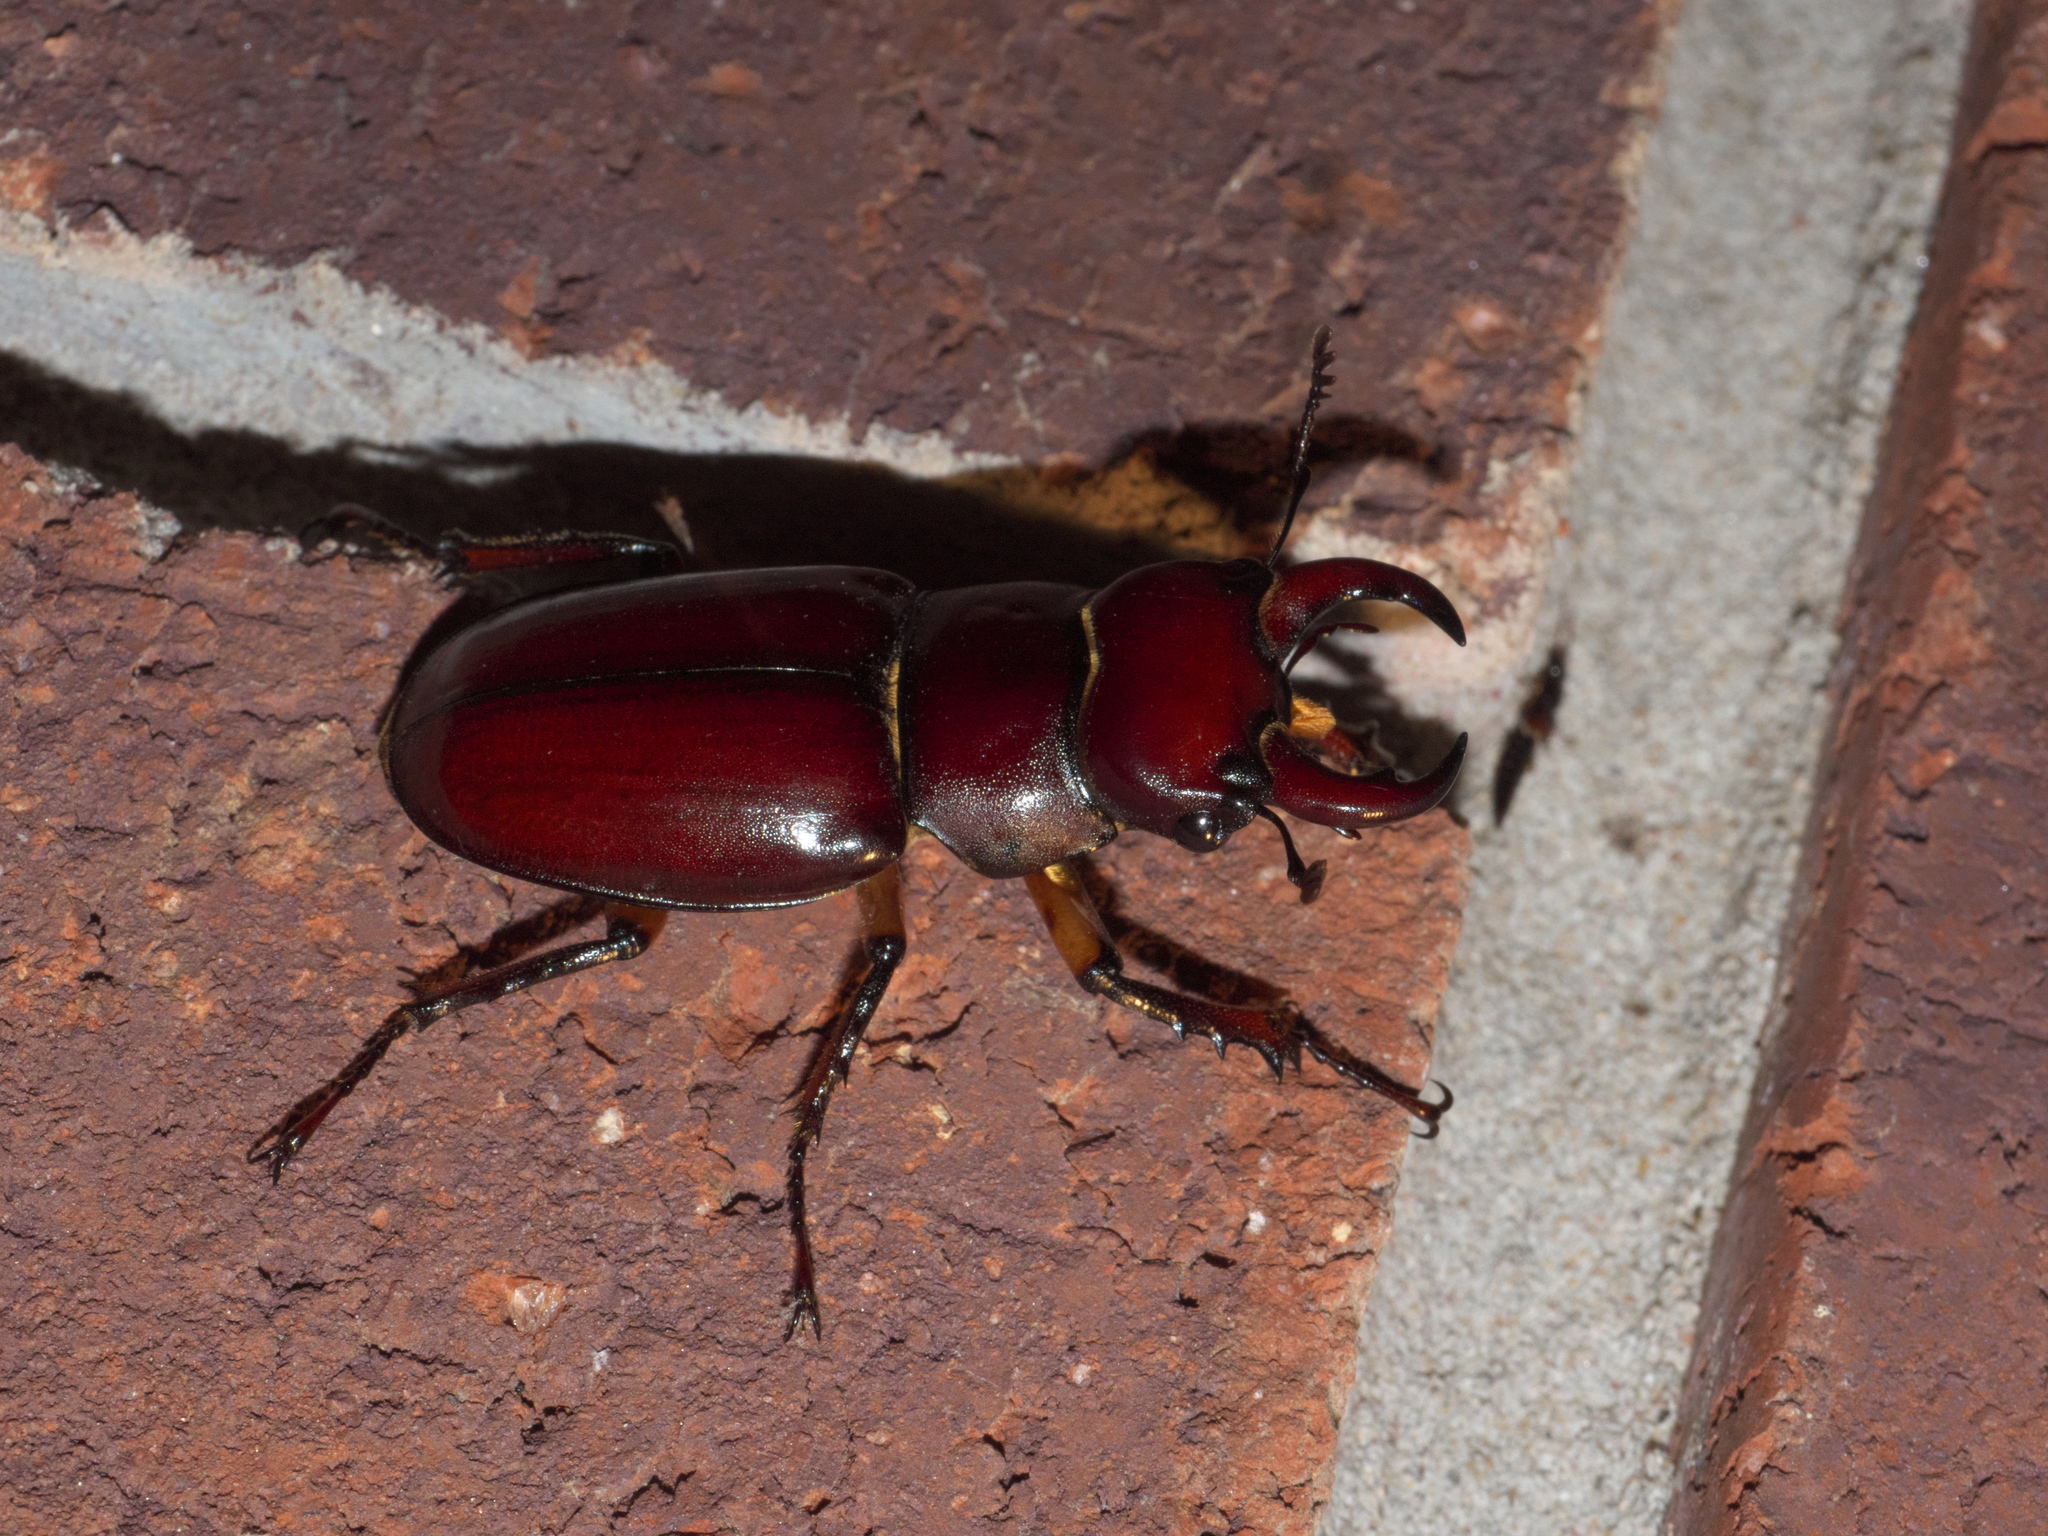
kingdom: Animalia
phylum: Arthropoda
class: Insecta
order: Coleoptera
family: Lucanidae
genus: Lucanus
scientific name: Lucanus capreolus
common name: Stag beetle
